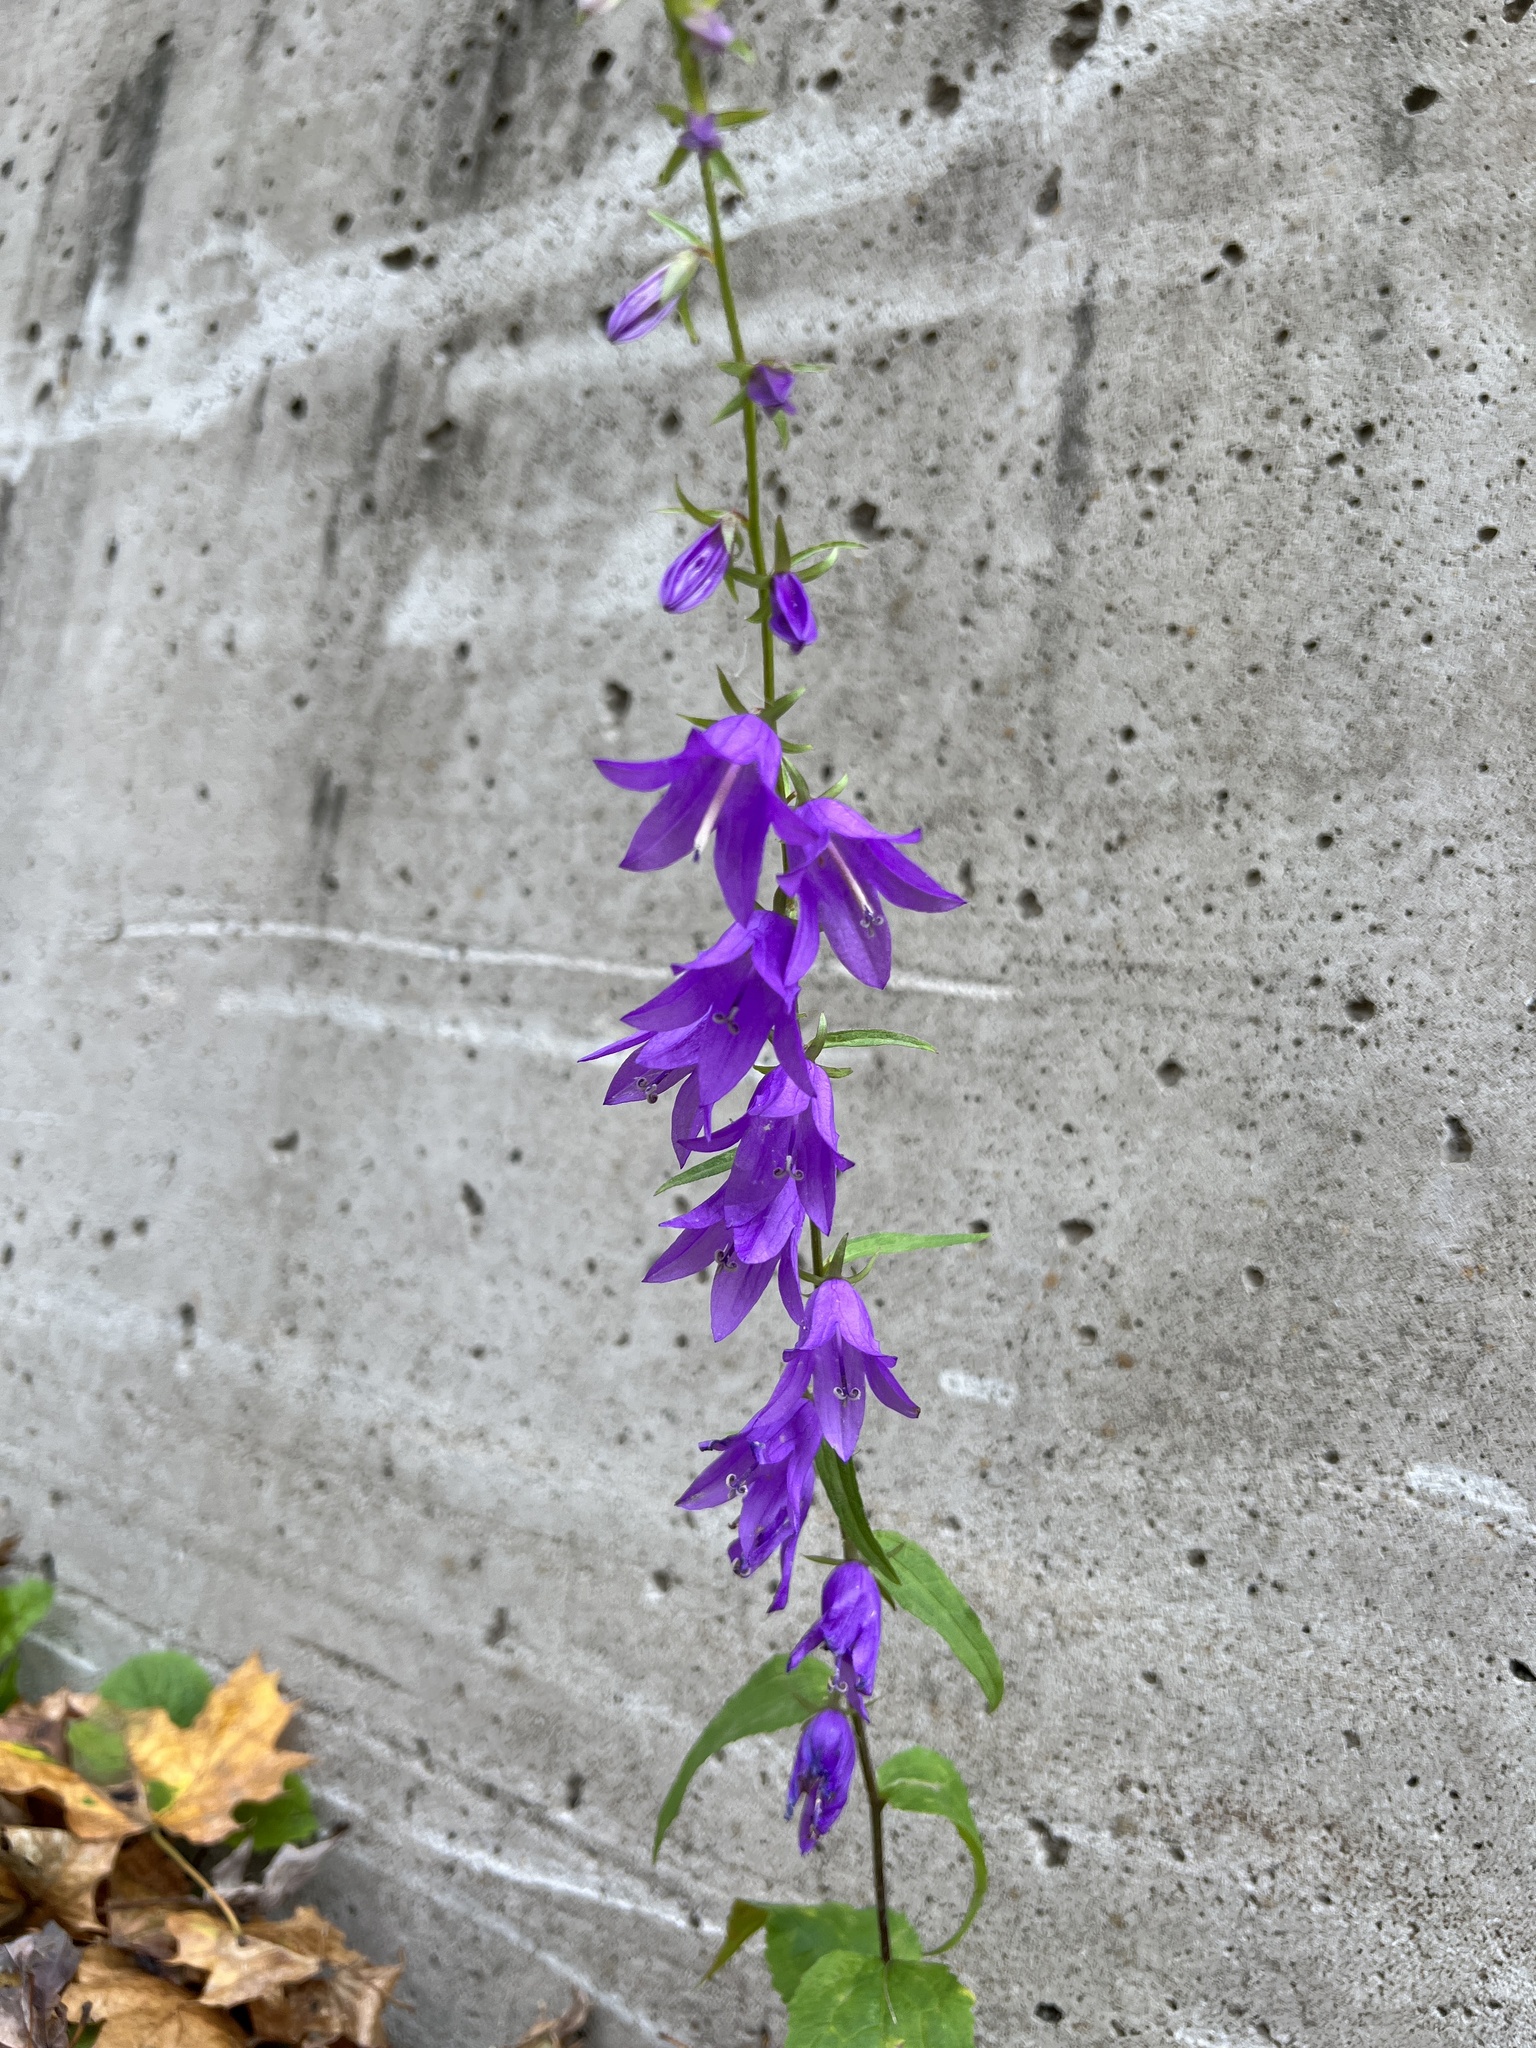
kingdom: Plantae
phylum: Tracheophyta
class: Magnoliopsida
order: Asterales
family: Campanulaceae
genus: Campanula
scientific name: Campanula rapunculoides
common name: Creeping bellflower
